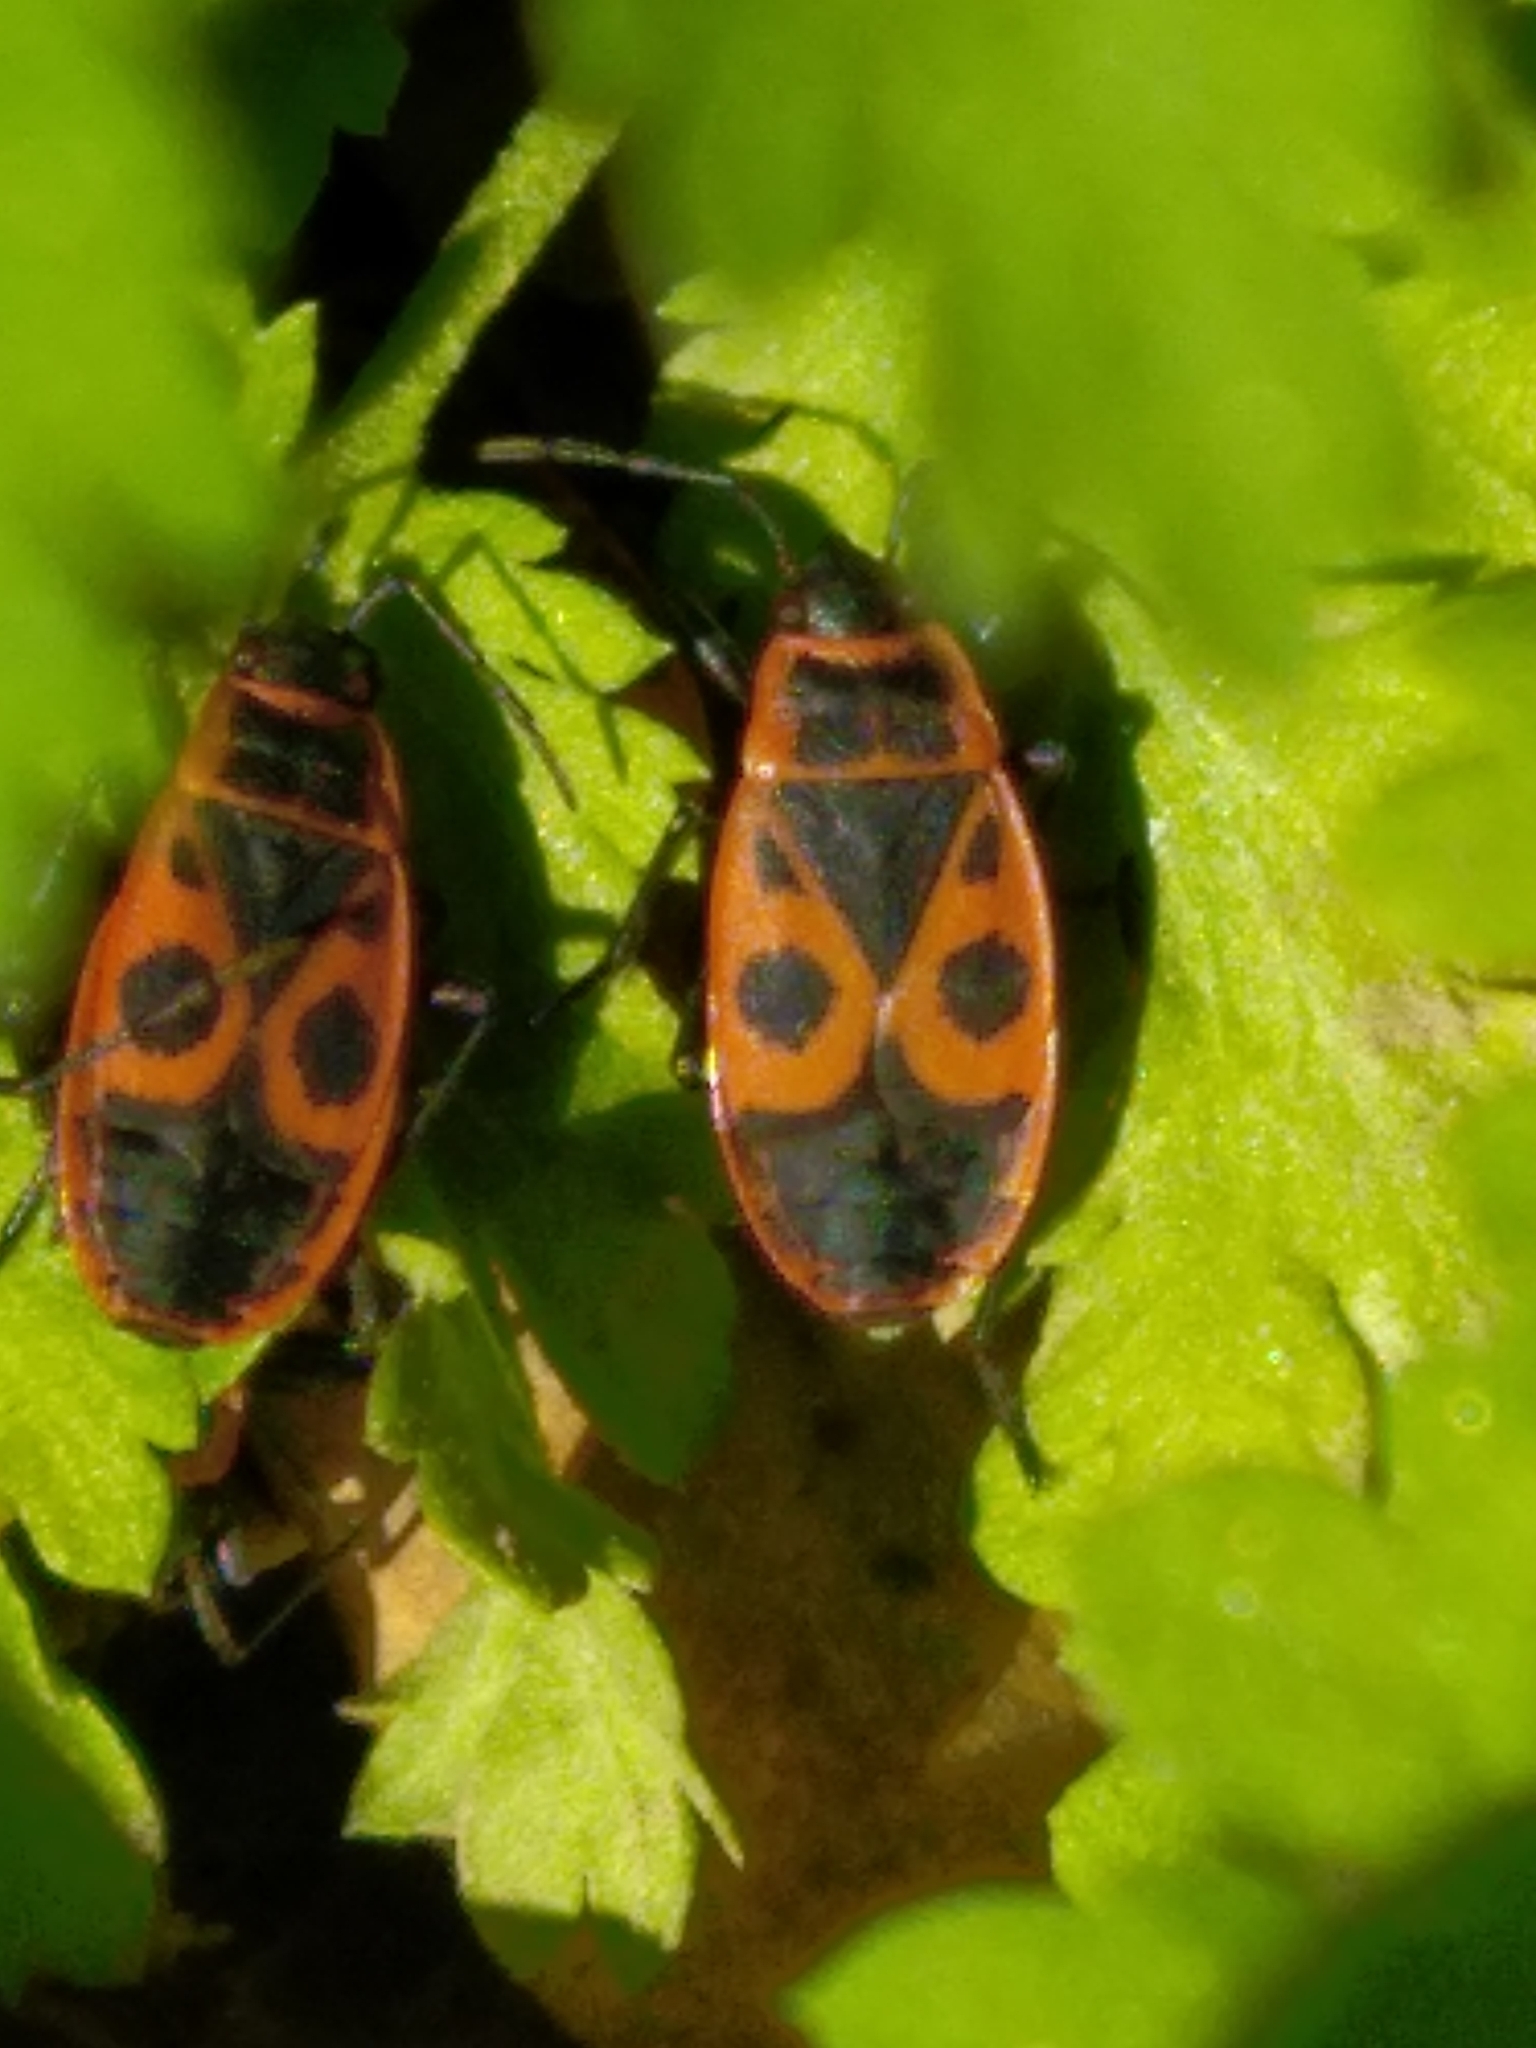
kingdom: Animalia
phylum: Arthropoda
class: Insecta
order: Hemiptera
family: Pyrrhocoridae
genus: Pyrrhocoris
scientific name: Pyrrhocoris apterus
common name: Firebug
